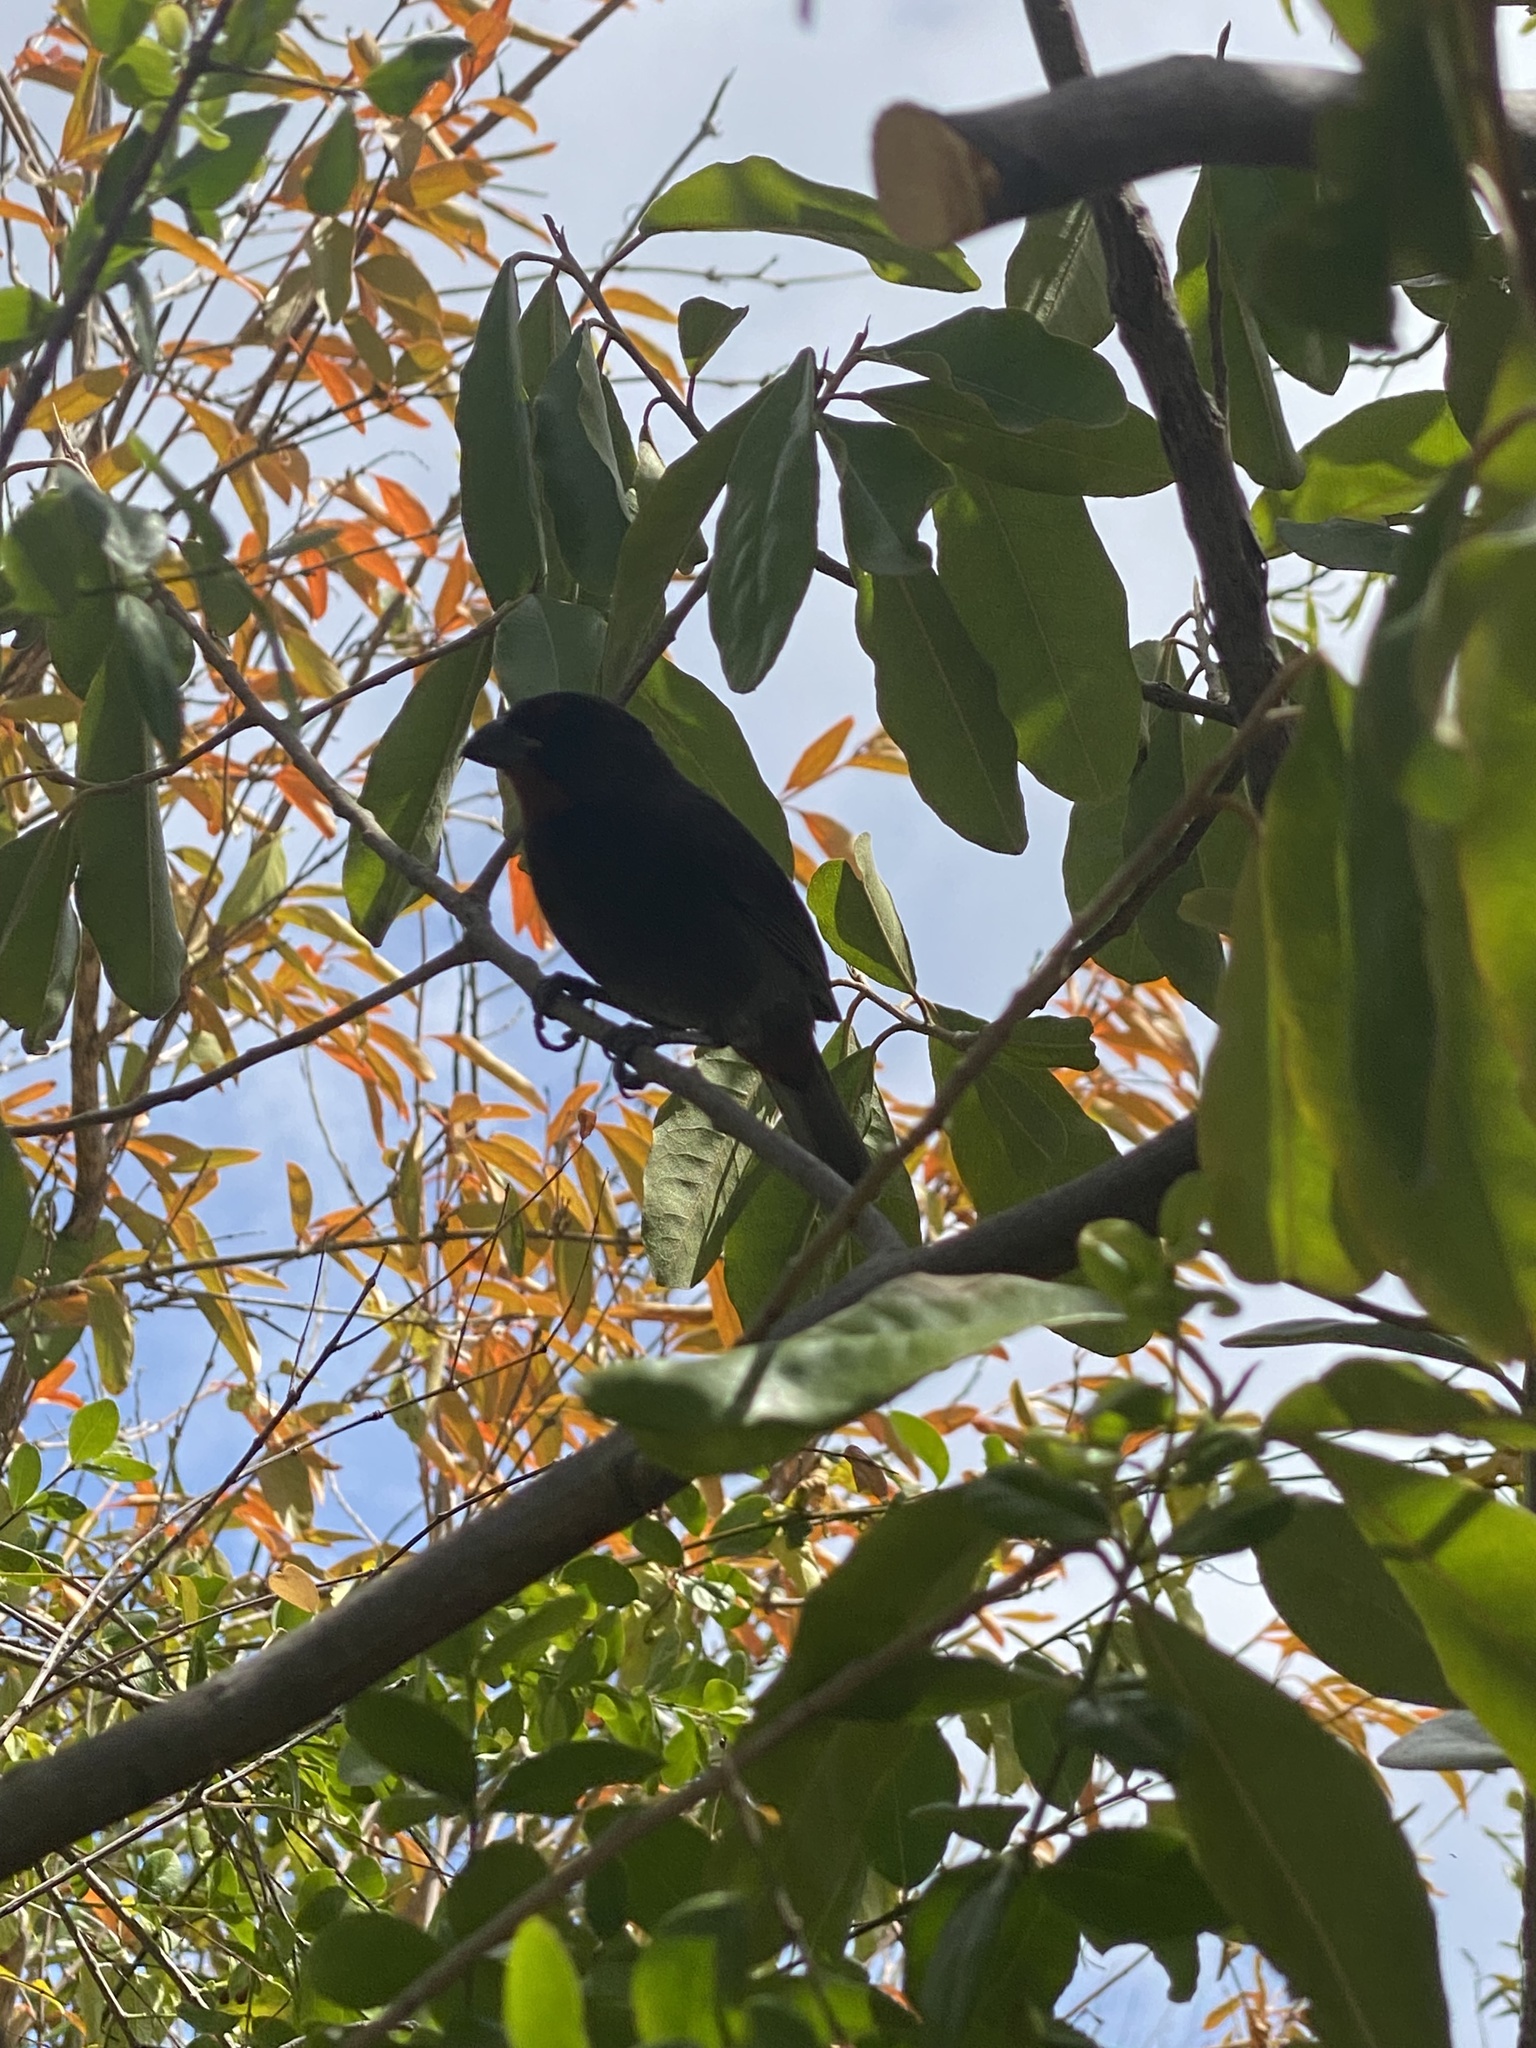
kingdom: Animalia
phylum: Chordata
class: Aves
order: Passeriformes
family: Thraupidae
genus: Loxigilla
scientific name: Loxigilla noctis
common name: Lesser antillean bullfinch
